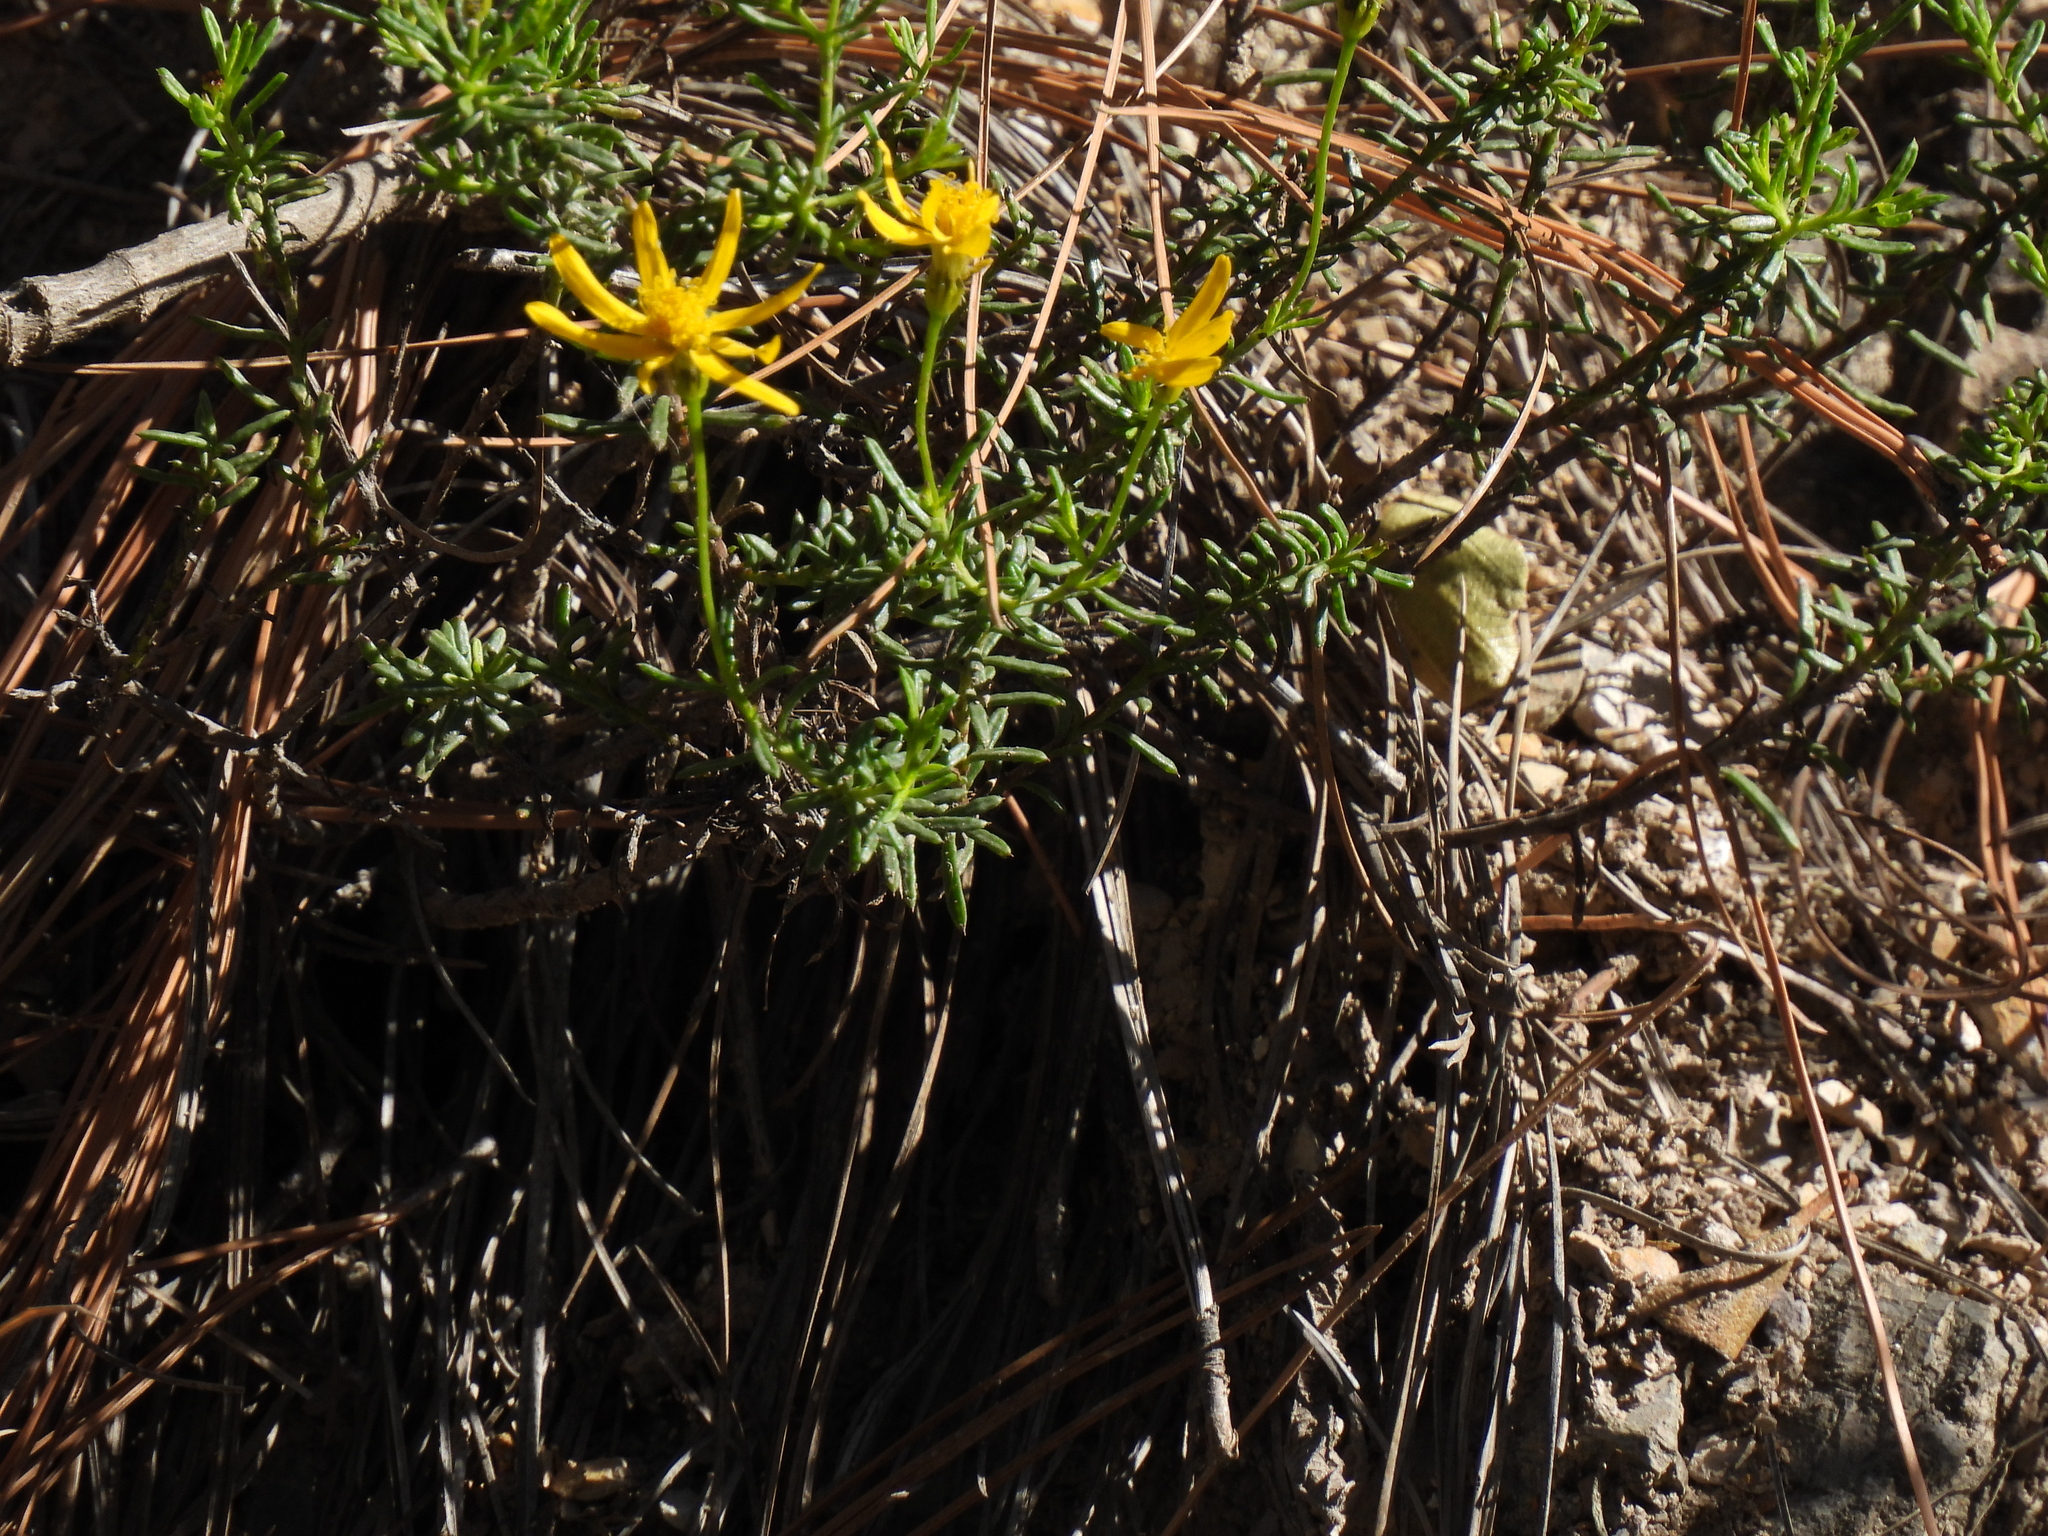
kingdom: Plantae
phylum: Tracheophyta
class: Magnoliopsida
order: Asterales
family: Asteraceae
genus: Chrysactinia
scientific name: Chrysactinia mexicana
